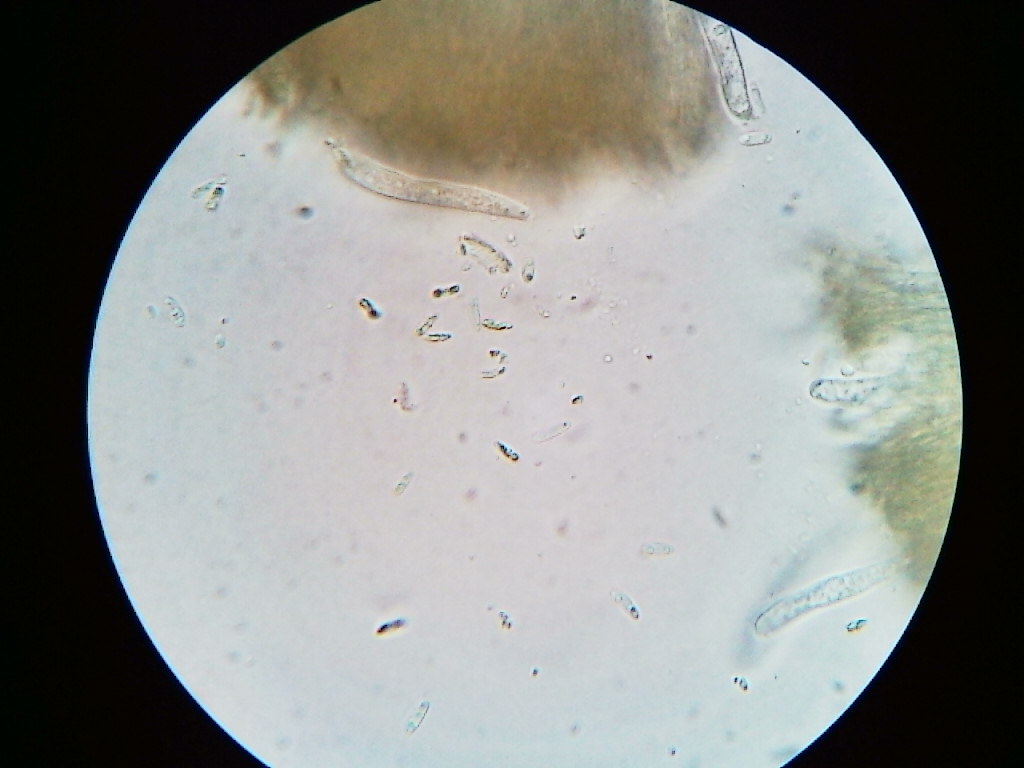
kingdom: Fungi
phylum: Ascomycota
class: Eurotiomycetes
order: Chaetothyriales
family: Herpotrichiellaceae
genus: Capronia
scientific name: Capronia pilosella
